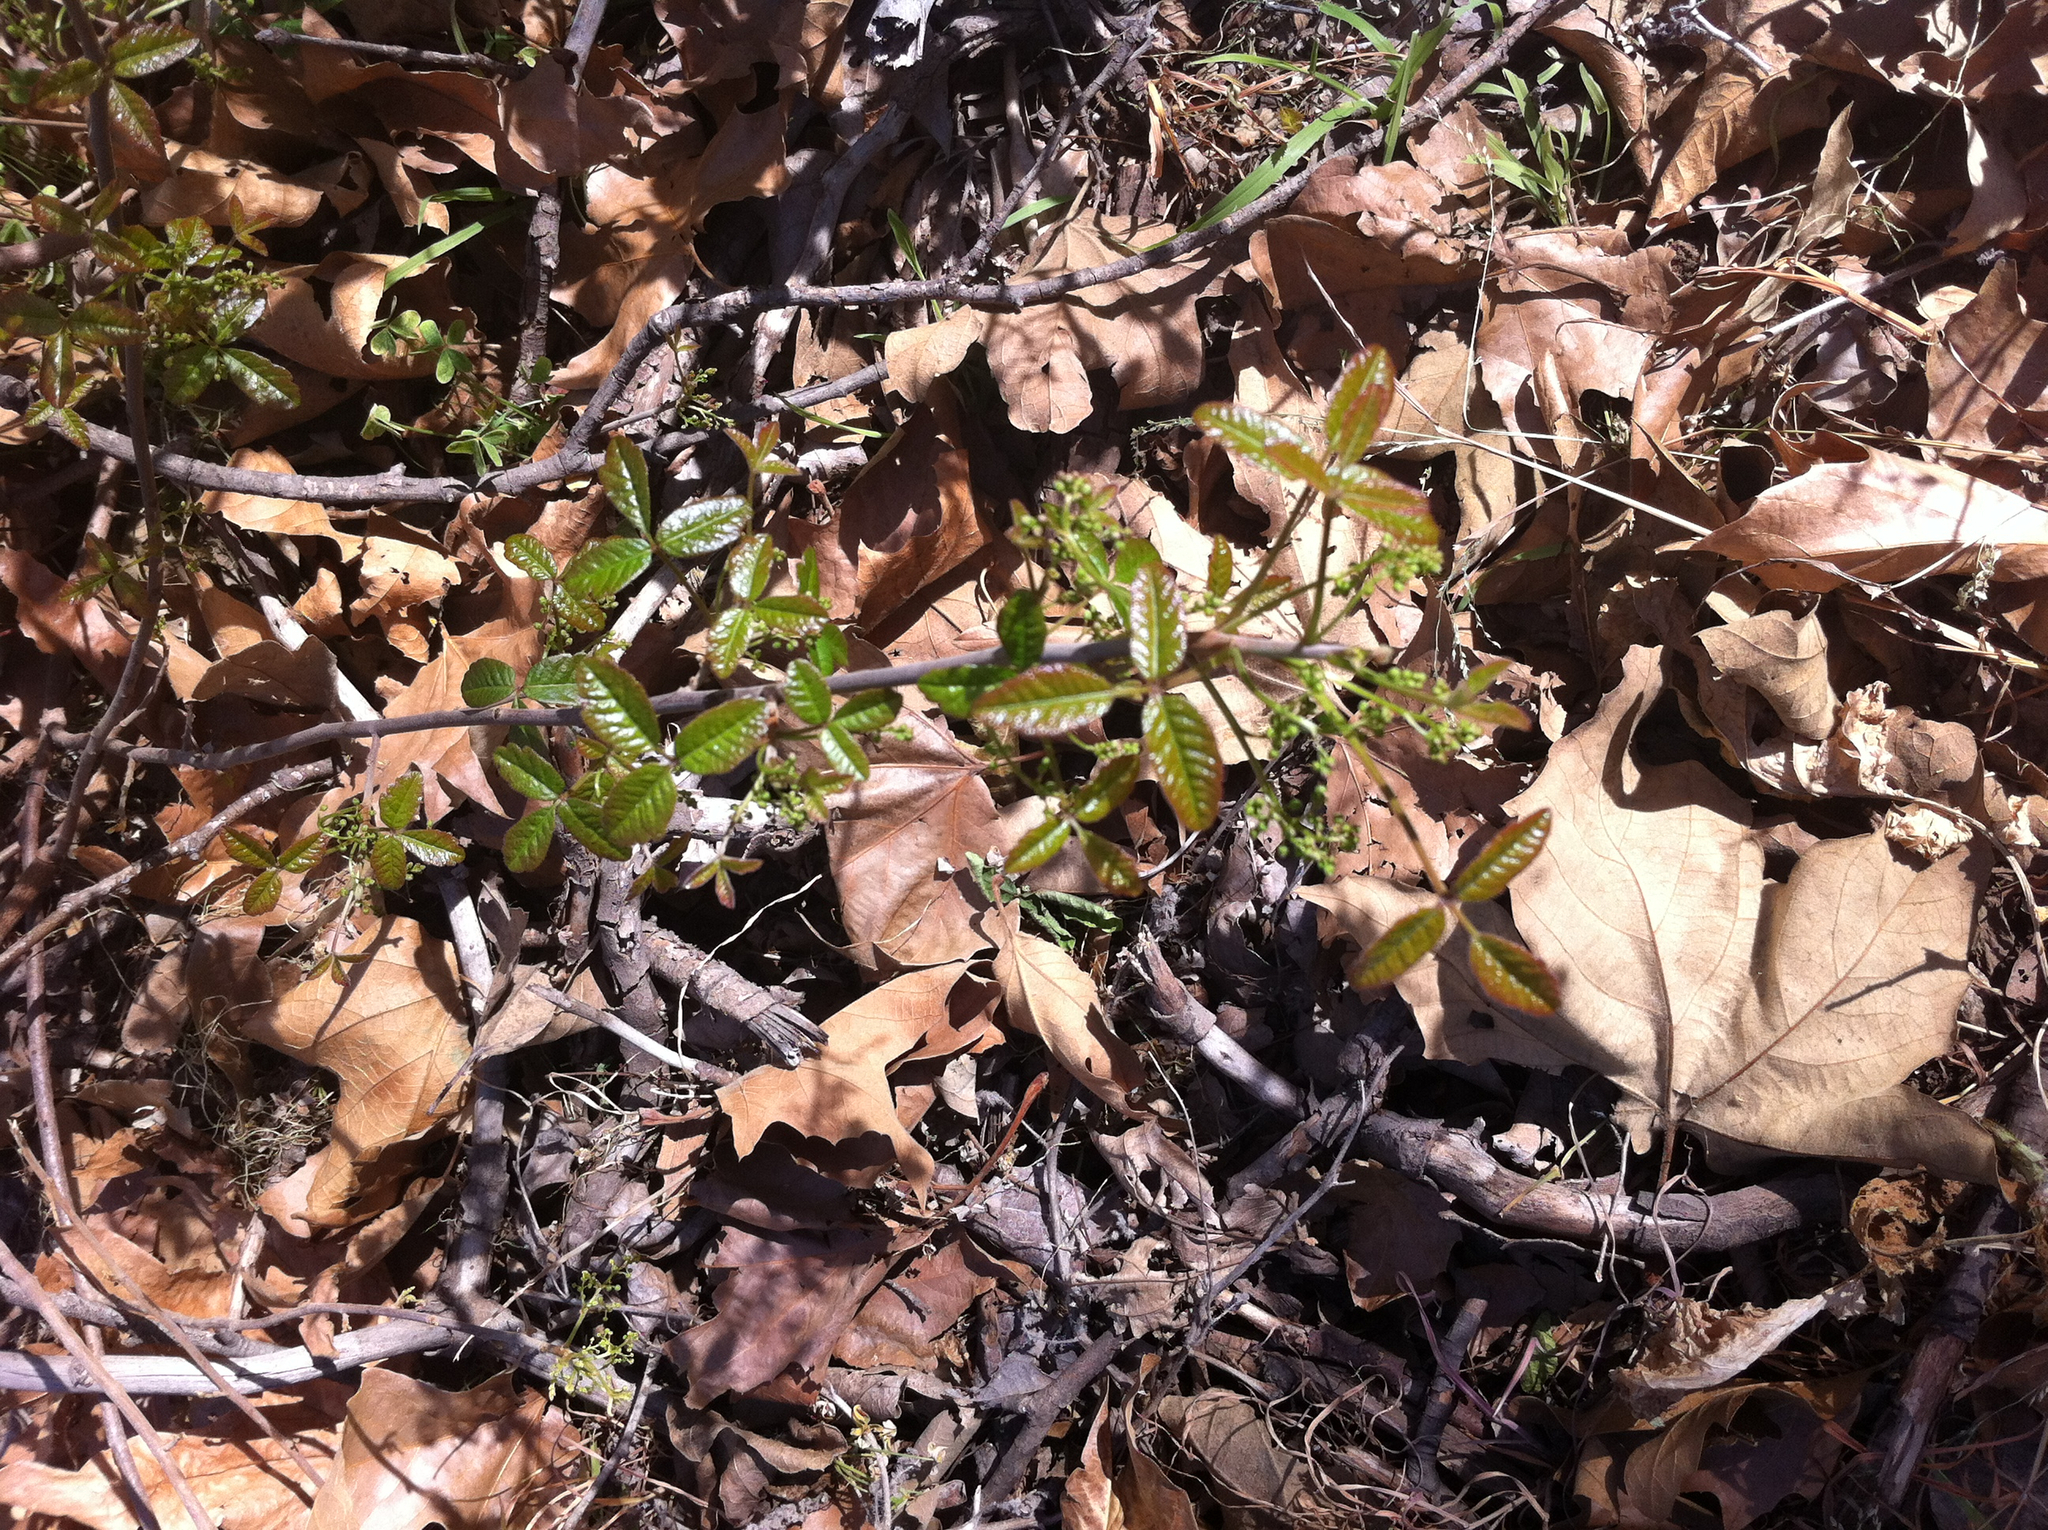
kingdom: Plantae
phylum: Tracheophyta
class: Magnoliopsida
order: Sapindales
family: Anacardiaceae
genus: Toxicodendron
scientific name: Toxicodendron diversilobum
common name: Pacific poison-oak
